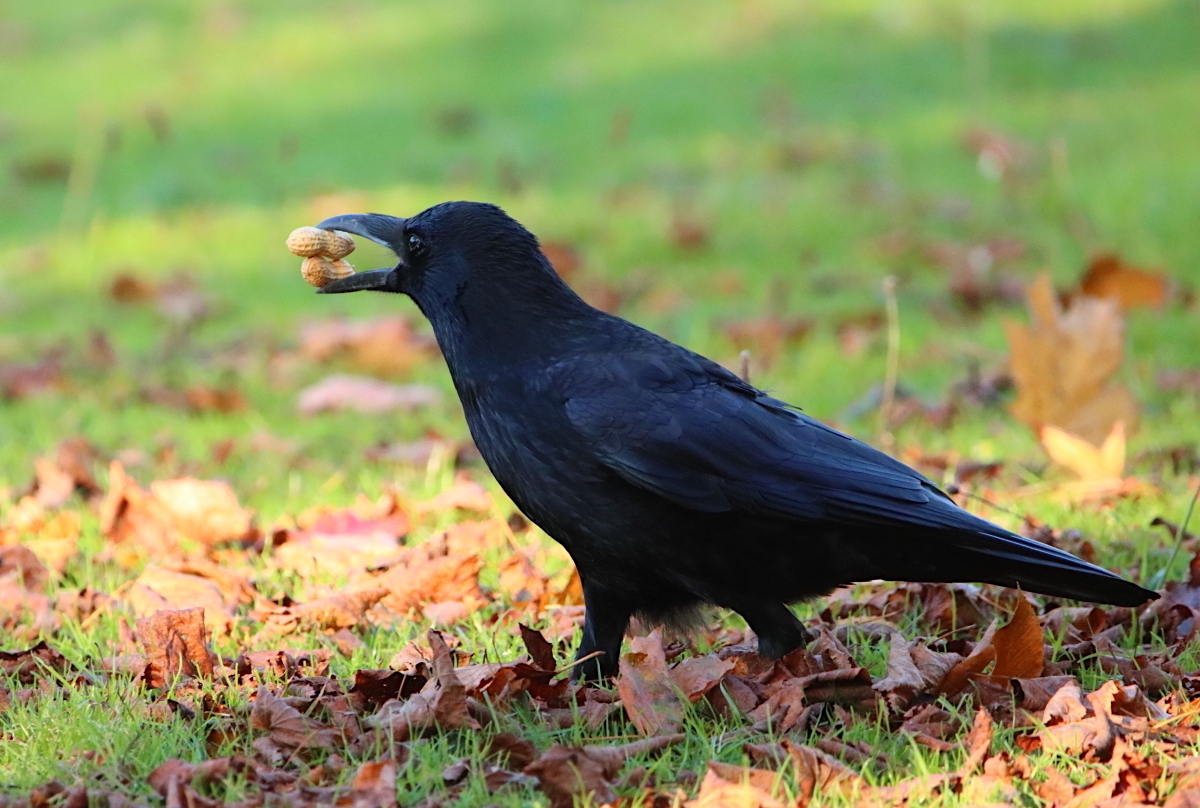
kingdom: Animalia
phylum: Chordata
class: Aves
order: Passeriformes
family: Corvidae
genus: Corvus
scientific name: Corvus corone
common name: Carrion crow
